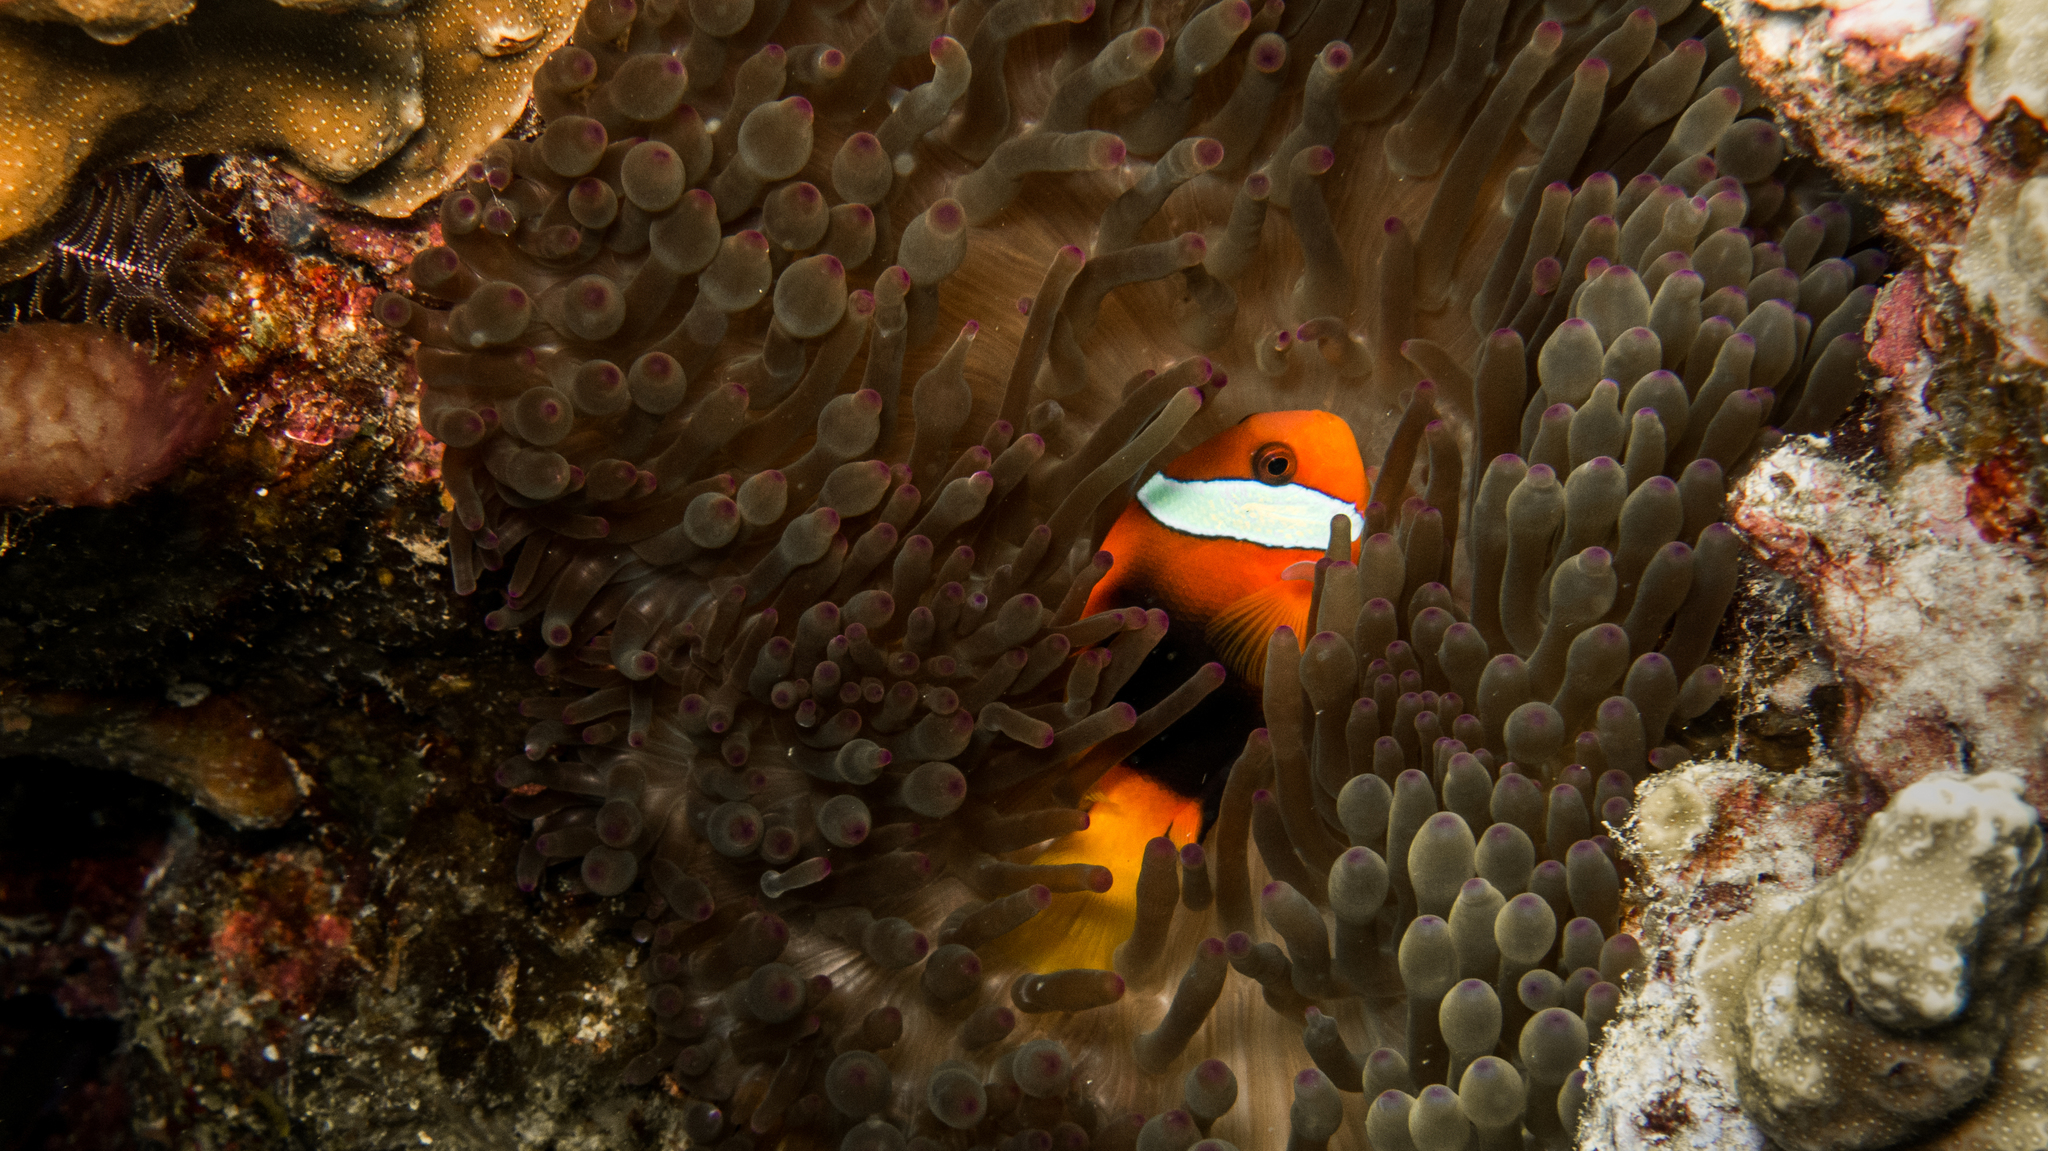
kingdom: Animalia
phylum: Chordata
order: Perciformes
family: Pomacentridae
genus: Amphiprion
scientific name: Amphiprion melanopus
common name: Black anemonefish
